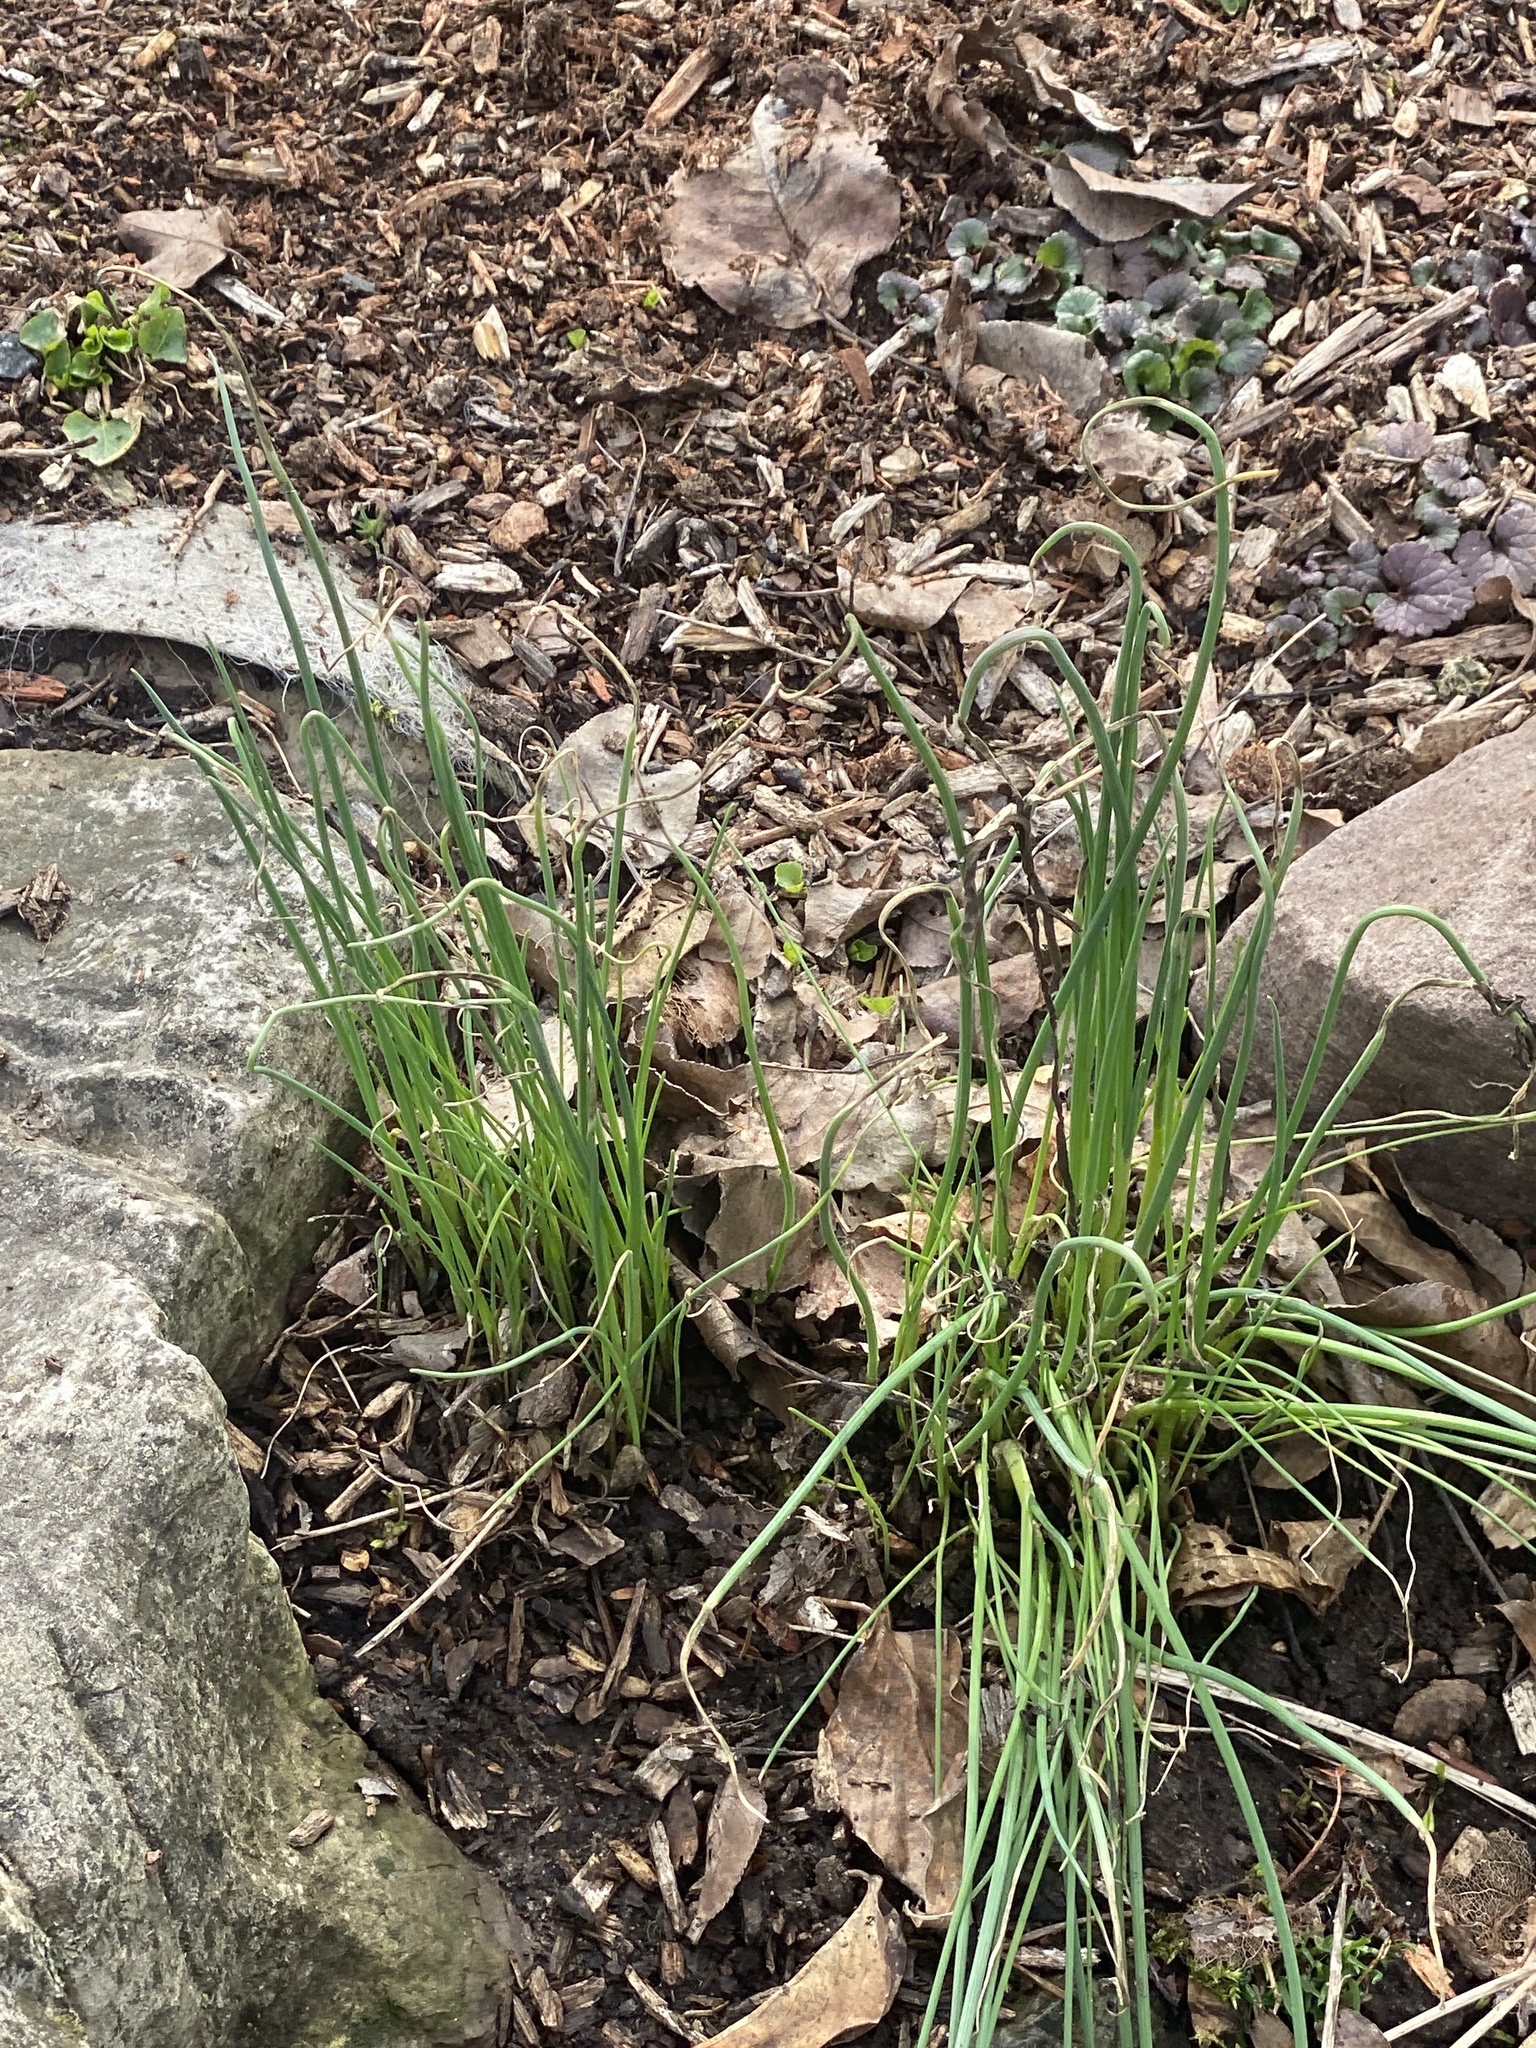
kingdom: Plantae
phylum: Tracheophyta
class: Liliopsida
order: Asparagales
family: Amaryllidaceae
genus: Allium
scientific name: Allium vineale
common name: Crow garlic
